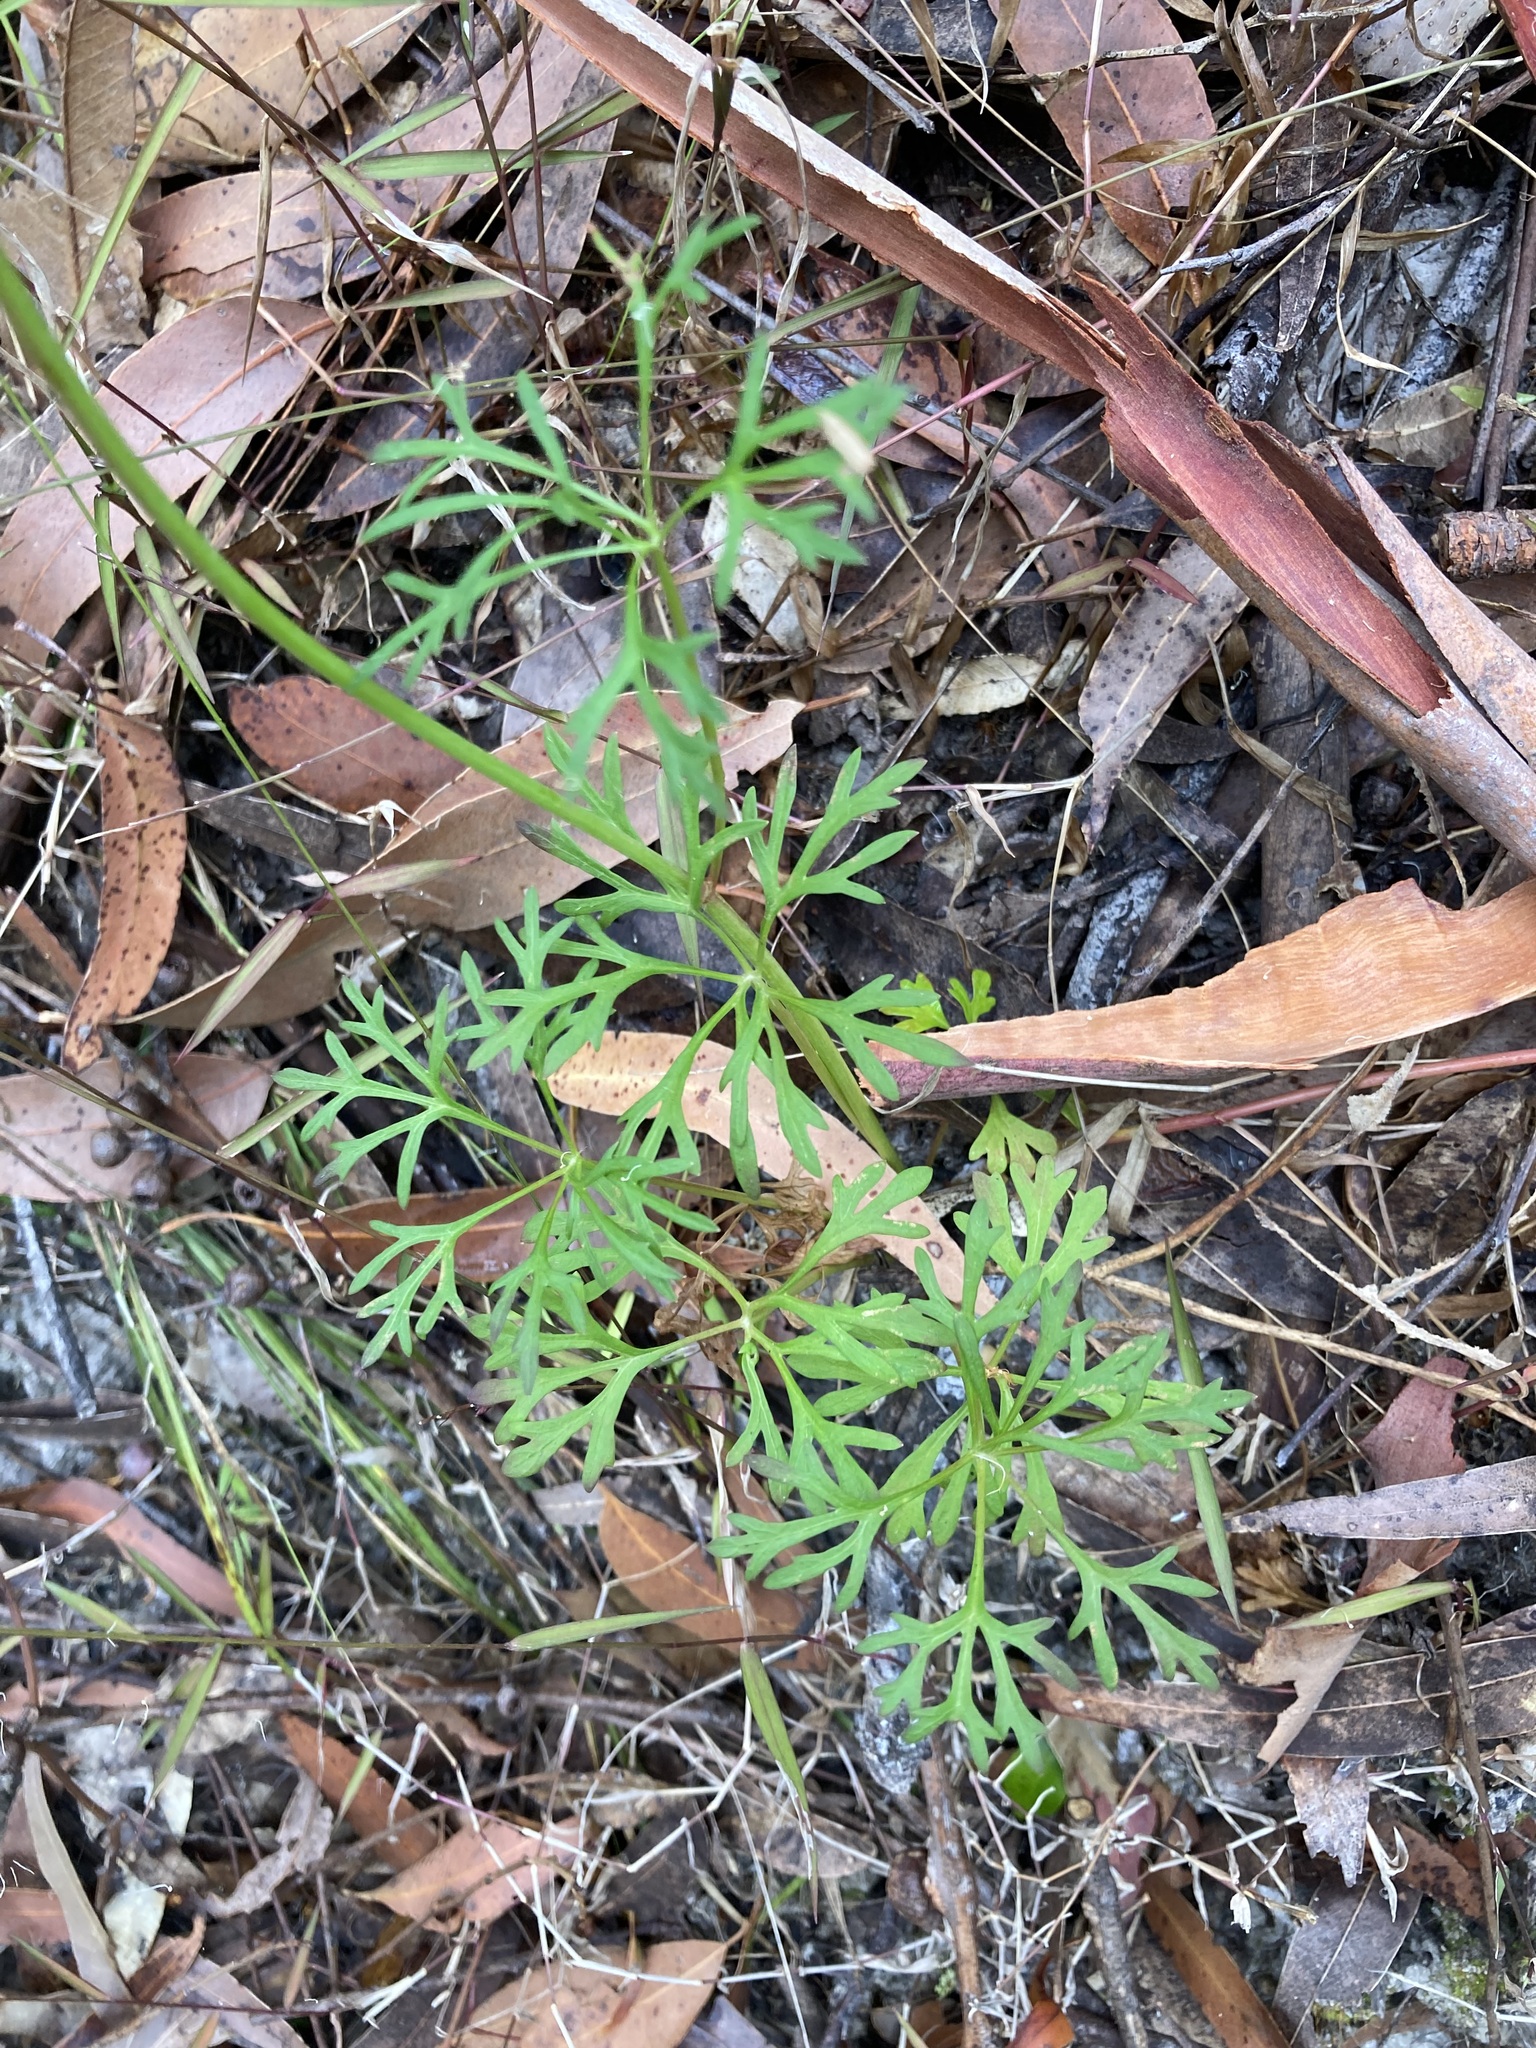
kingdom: Plantae
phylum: Tracheophyta
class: Magnoliopsida
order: Apiales
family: Araliaceae
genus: Trachymene
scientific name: Trachymene incisa
